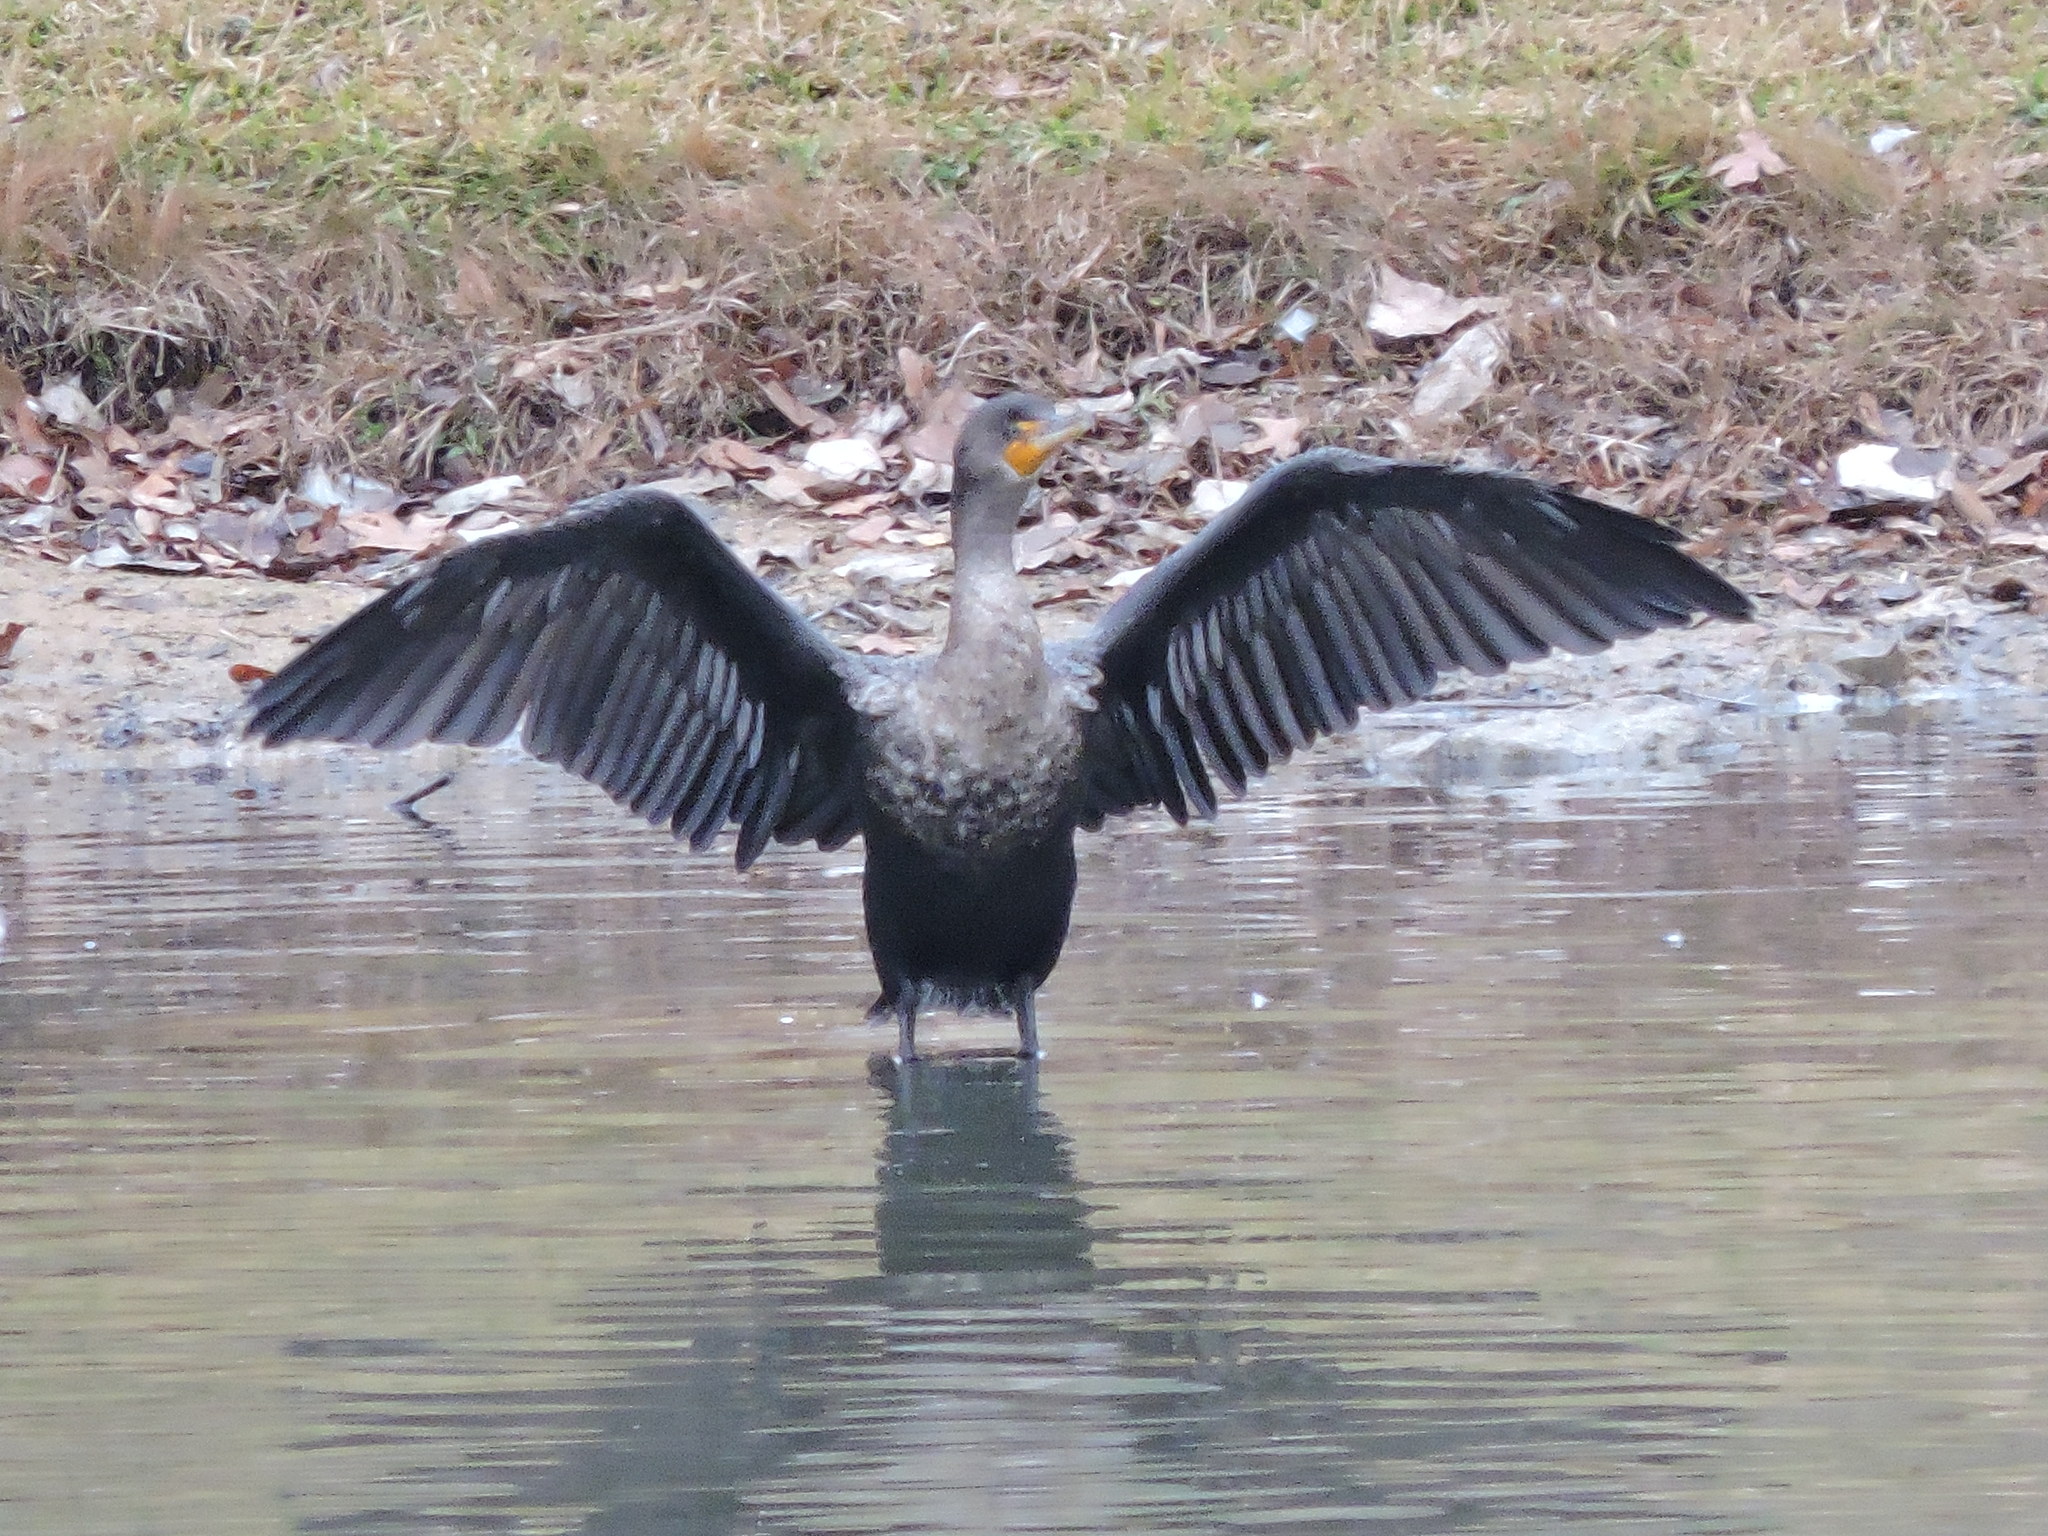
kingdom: Animalia
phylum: Chordata
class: Aves
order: Suliformes
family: Phalacrocoracidae
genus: Phalacrocorax
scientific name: Phalacrocorax auritus
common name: Double-crested cormorant
